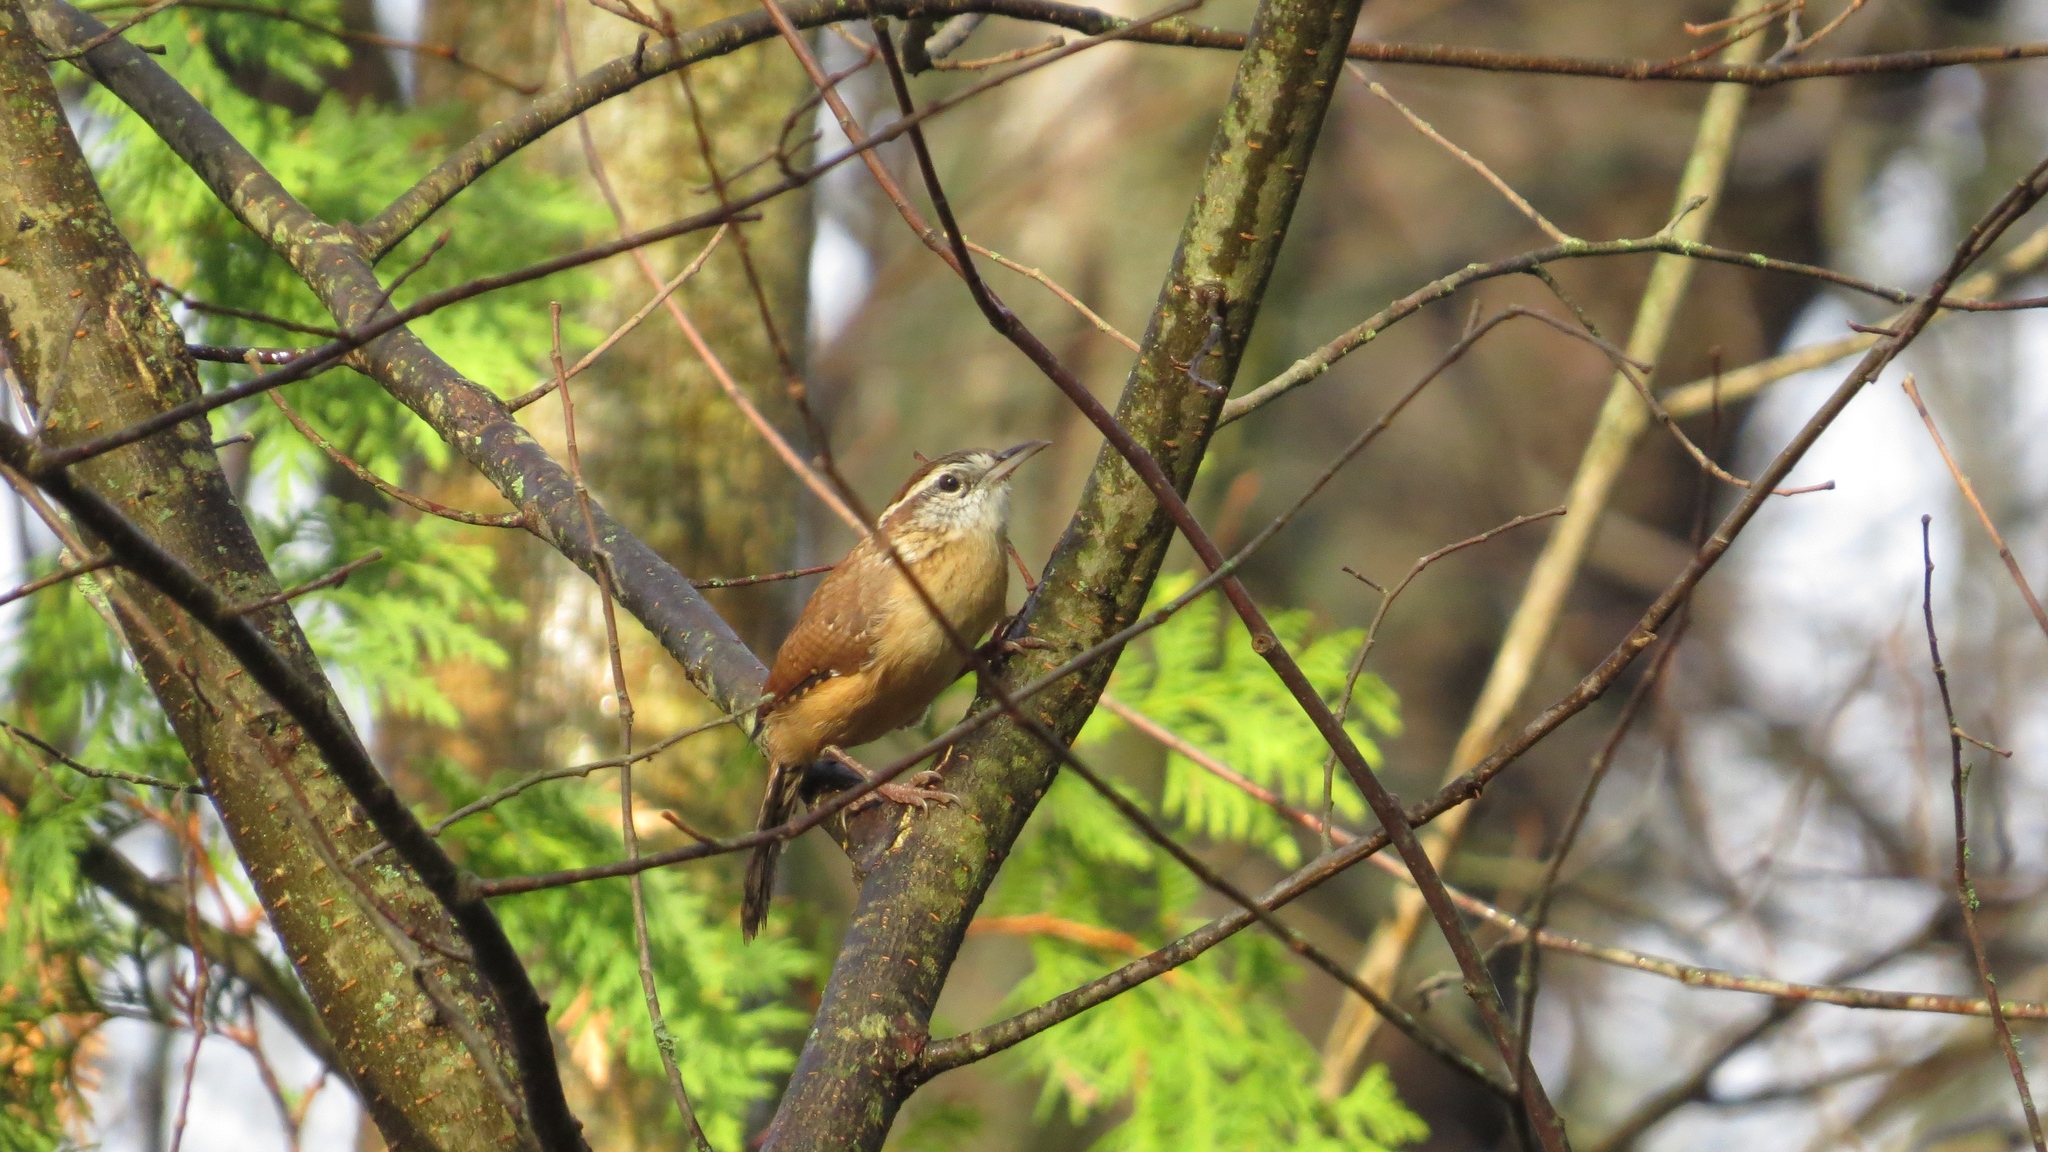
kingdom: Animalia
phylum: Chordata
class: Aves
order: Passeriformes
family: Troglodytidae
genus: Thryothorus
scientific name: Thryothorus ludovicianus
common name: Carolina wren
